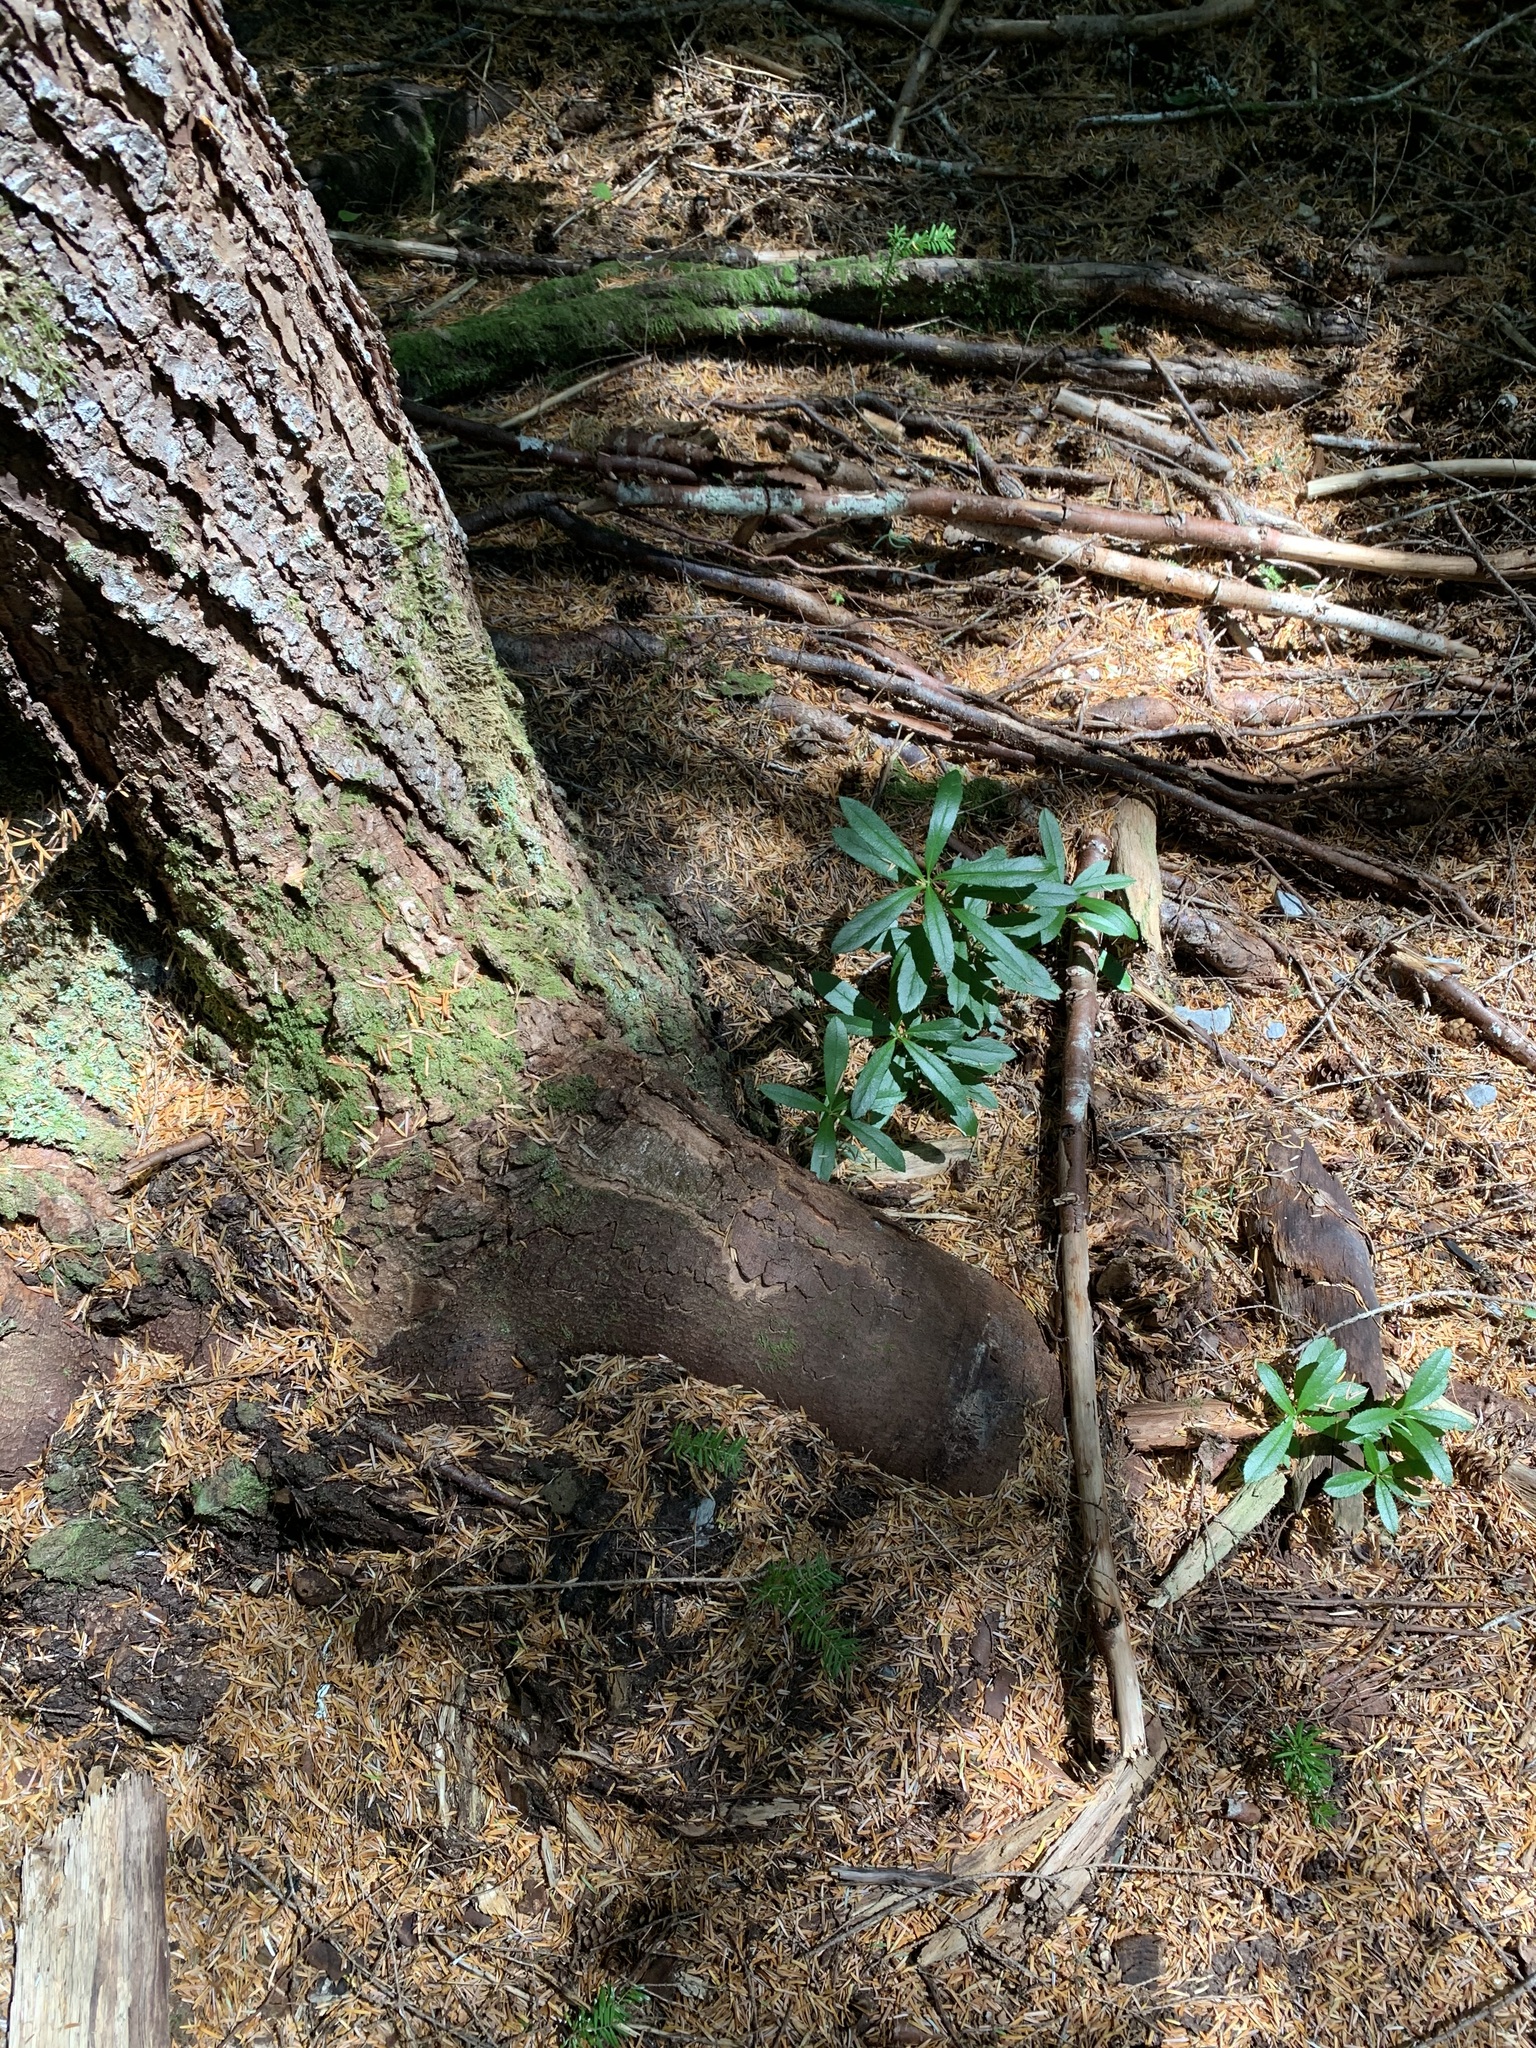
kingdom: Plantae
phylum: Tracheophyta
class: Magnoliopsida
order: Ericales
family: Ericaceae
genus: Chimaphila
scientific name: Chimaphila umbellata
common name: Pipsissewa
